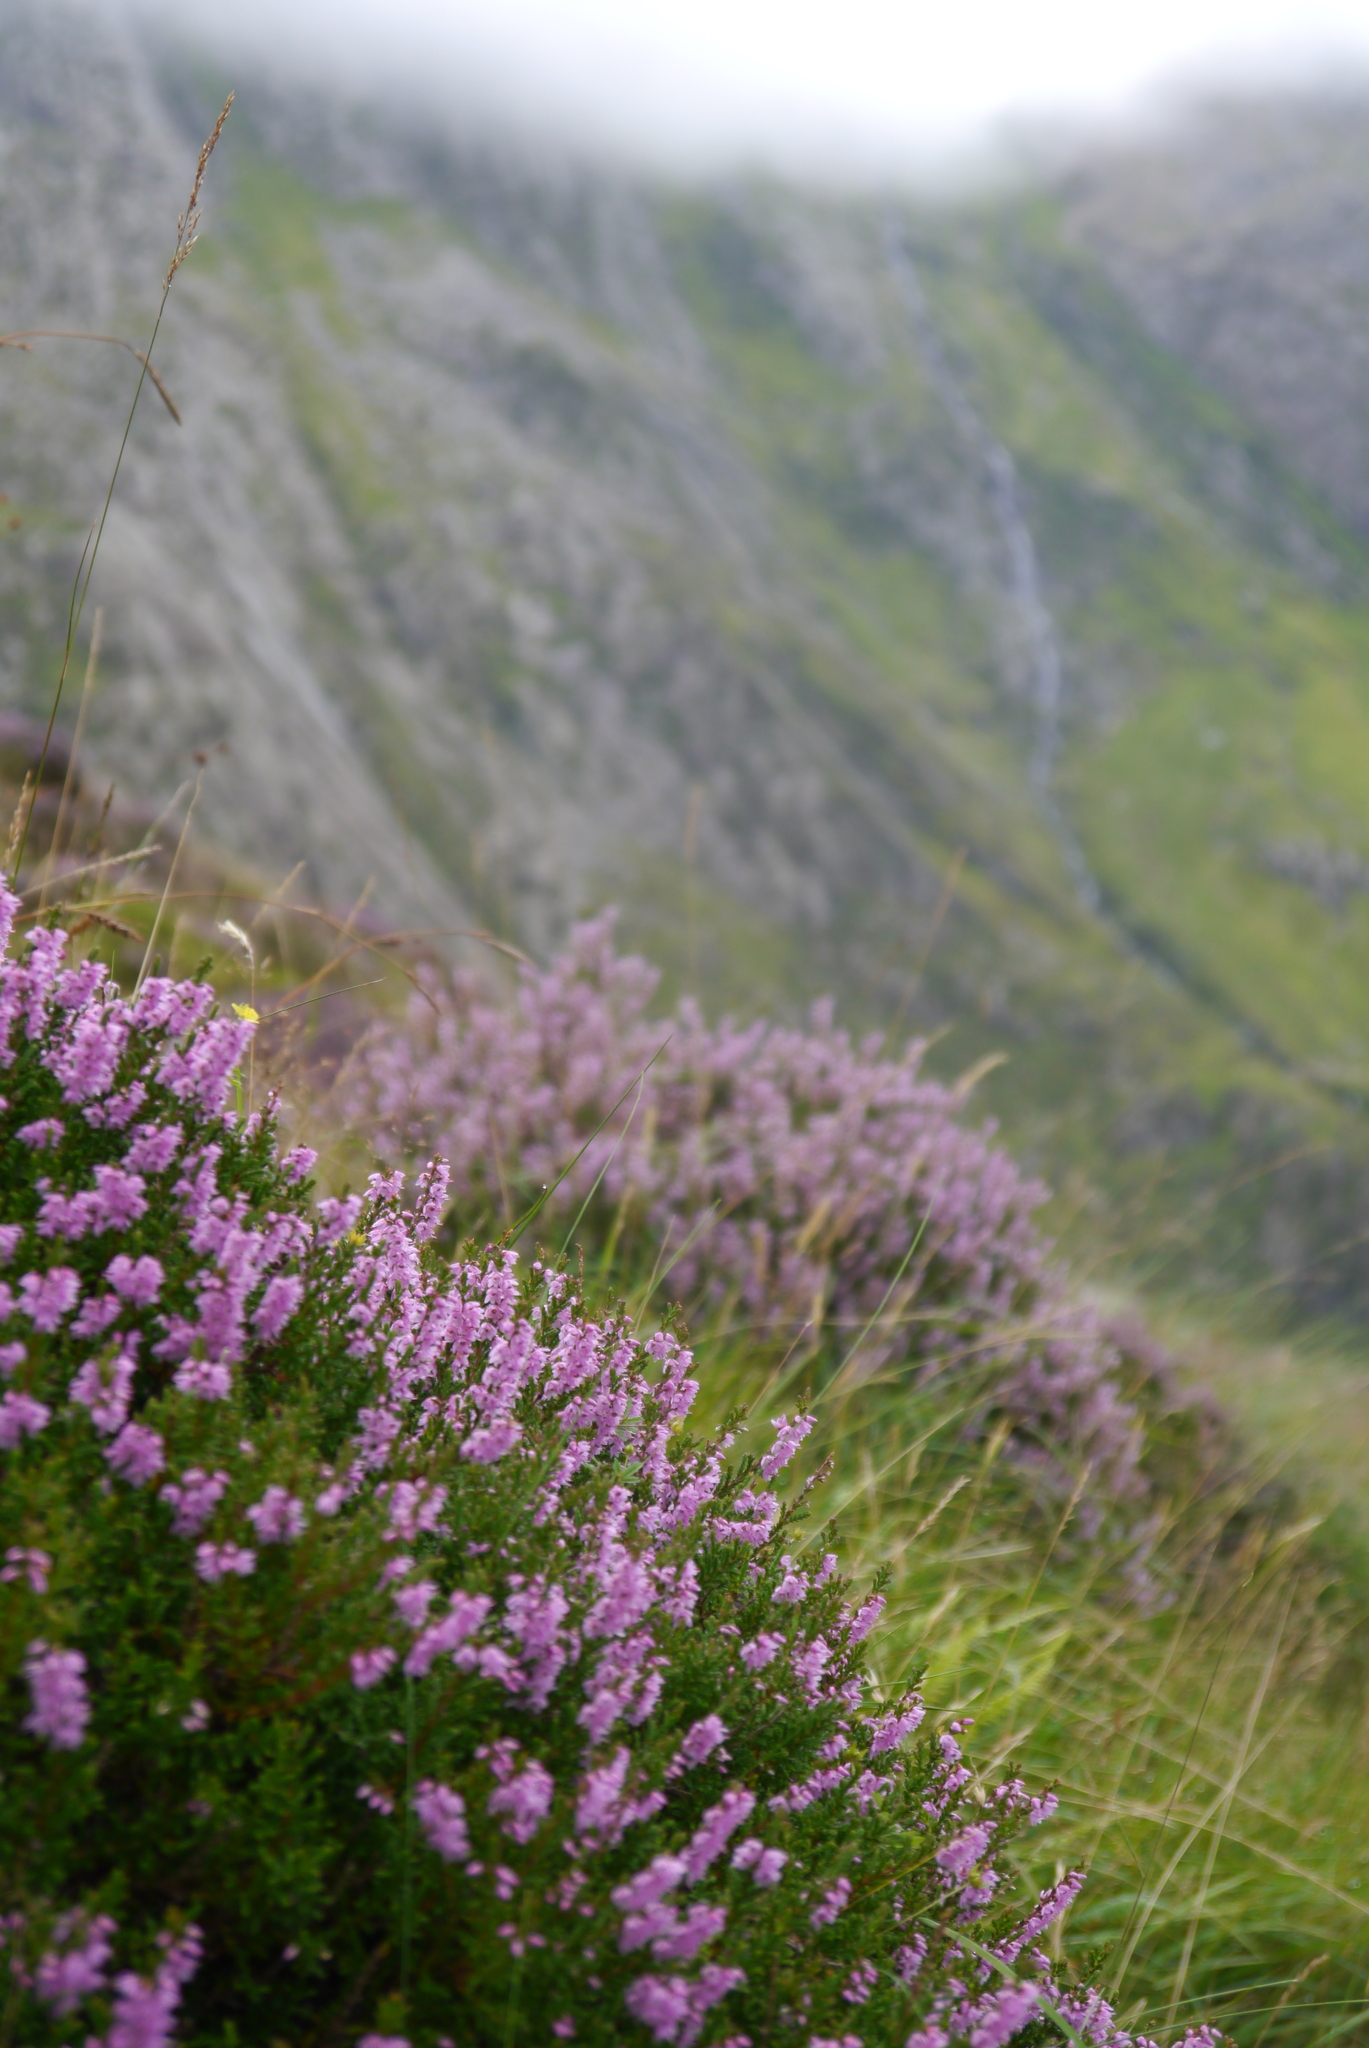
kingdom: Plantae
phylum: Tracheophyta
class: Magnoliopsida
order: Ericales
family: Ericaceae
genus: Calluna
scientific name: Calluna vulgaris
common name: Heather
